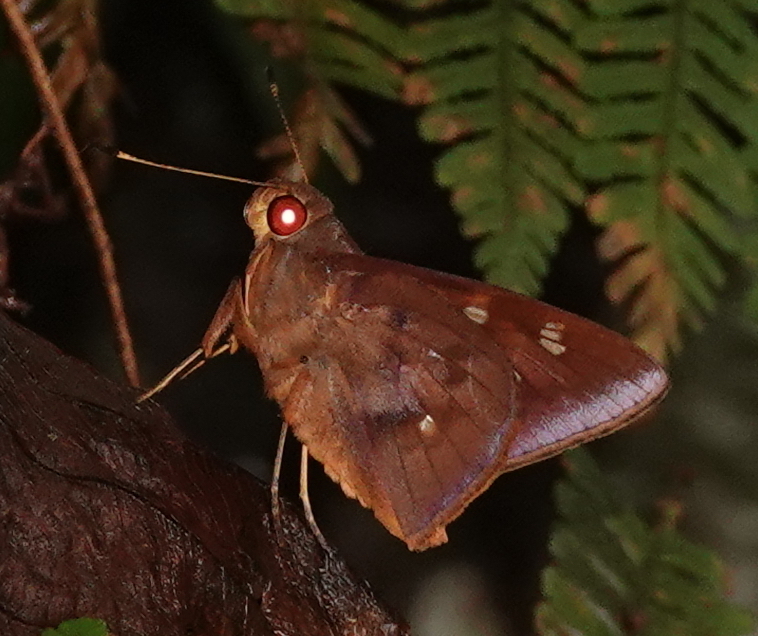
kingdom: Animalia
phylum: Arthropoda
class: Insecta
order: Lepidoptera
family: Hesperiidae
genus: Talides
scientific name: Talides sinois
